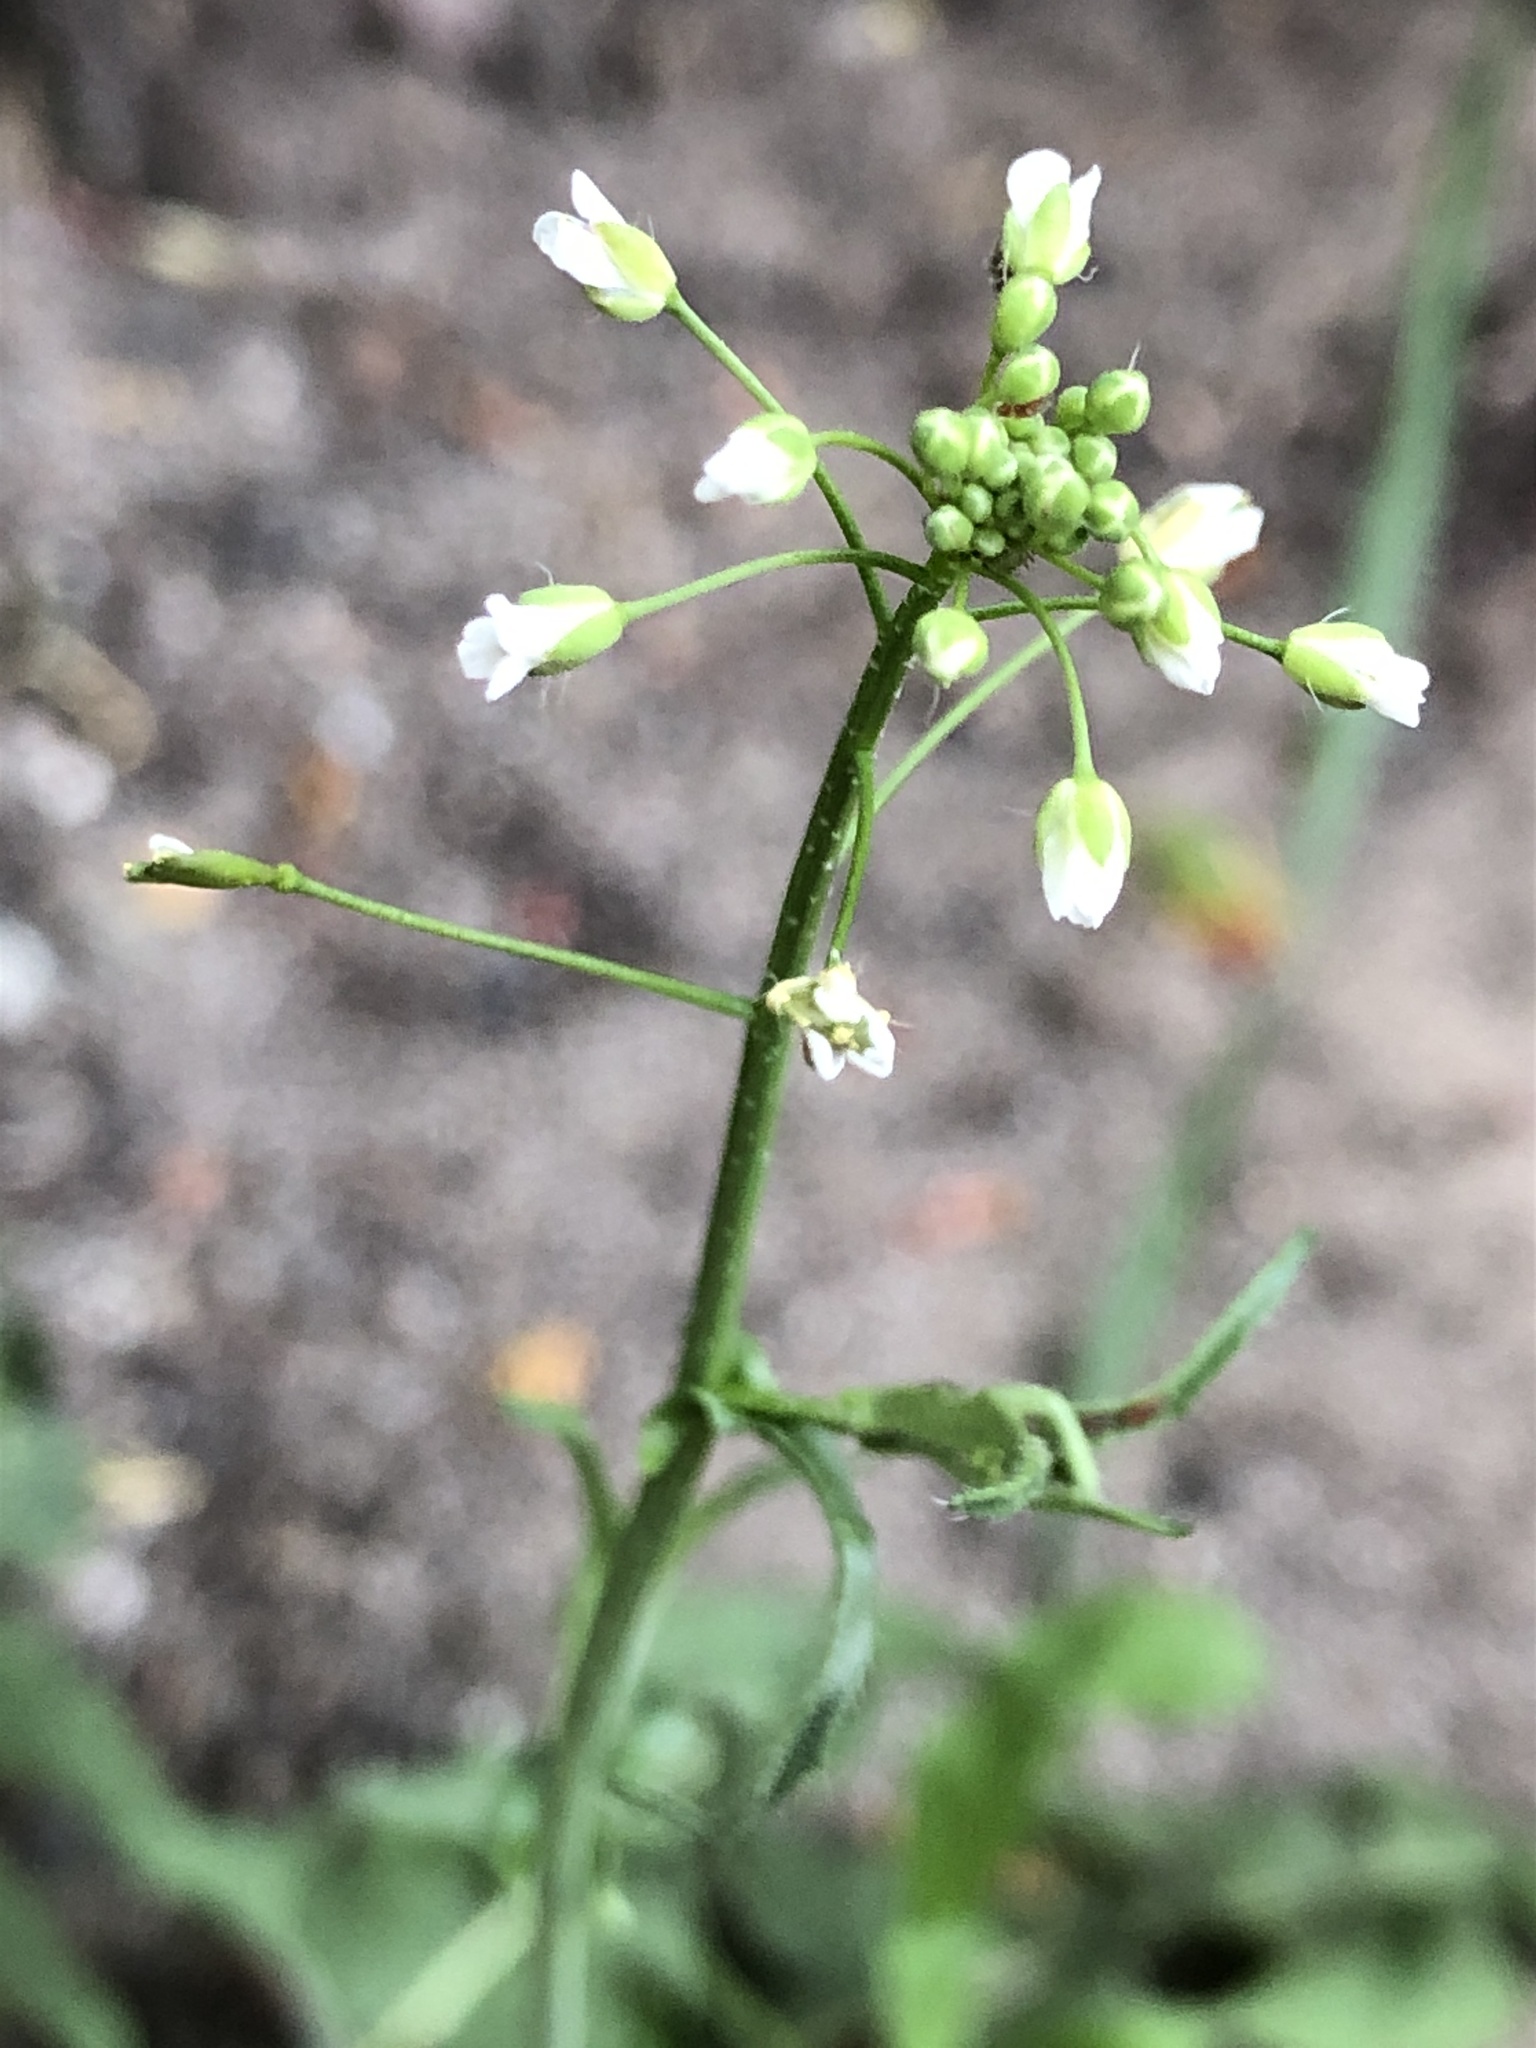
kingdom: Plantae
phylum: Tracheophyta
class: Magnoliopsida
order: Brassicales
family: Brassicaceae
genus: Capsella
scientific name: Capsella bursa-pastoris
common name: Shepherd's purse
